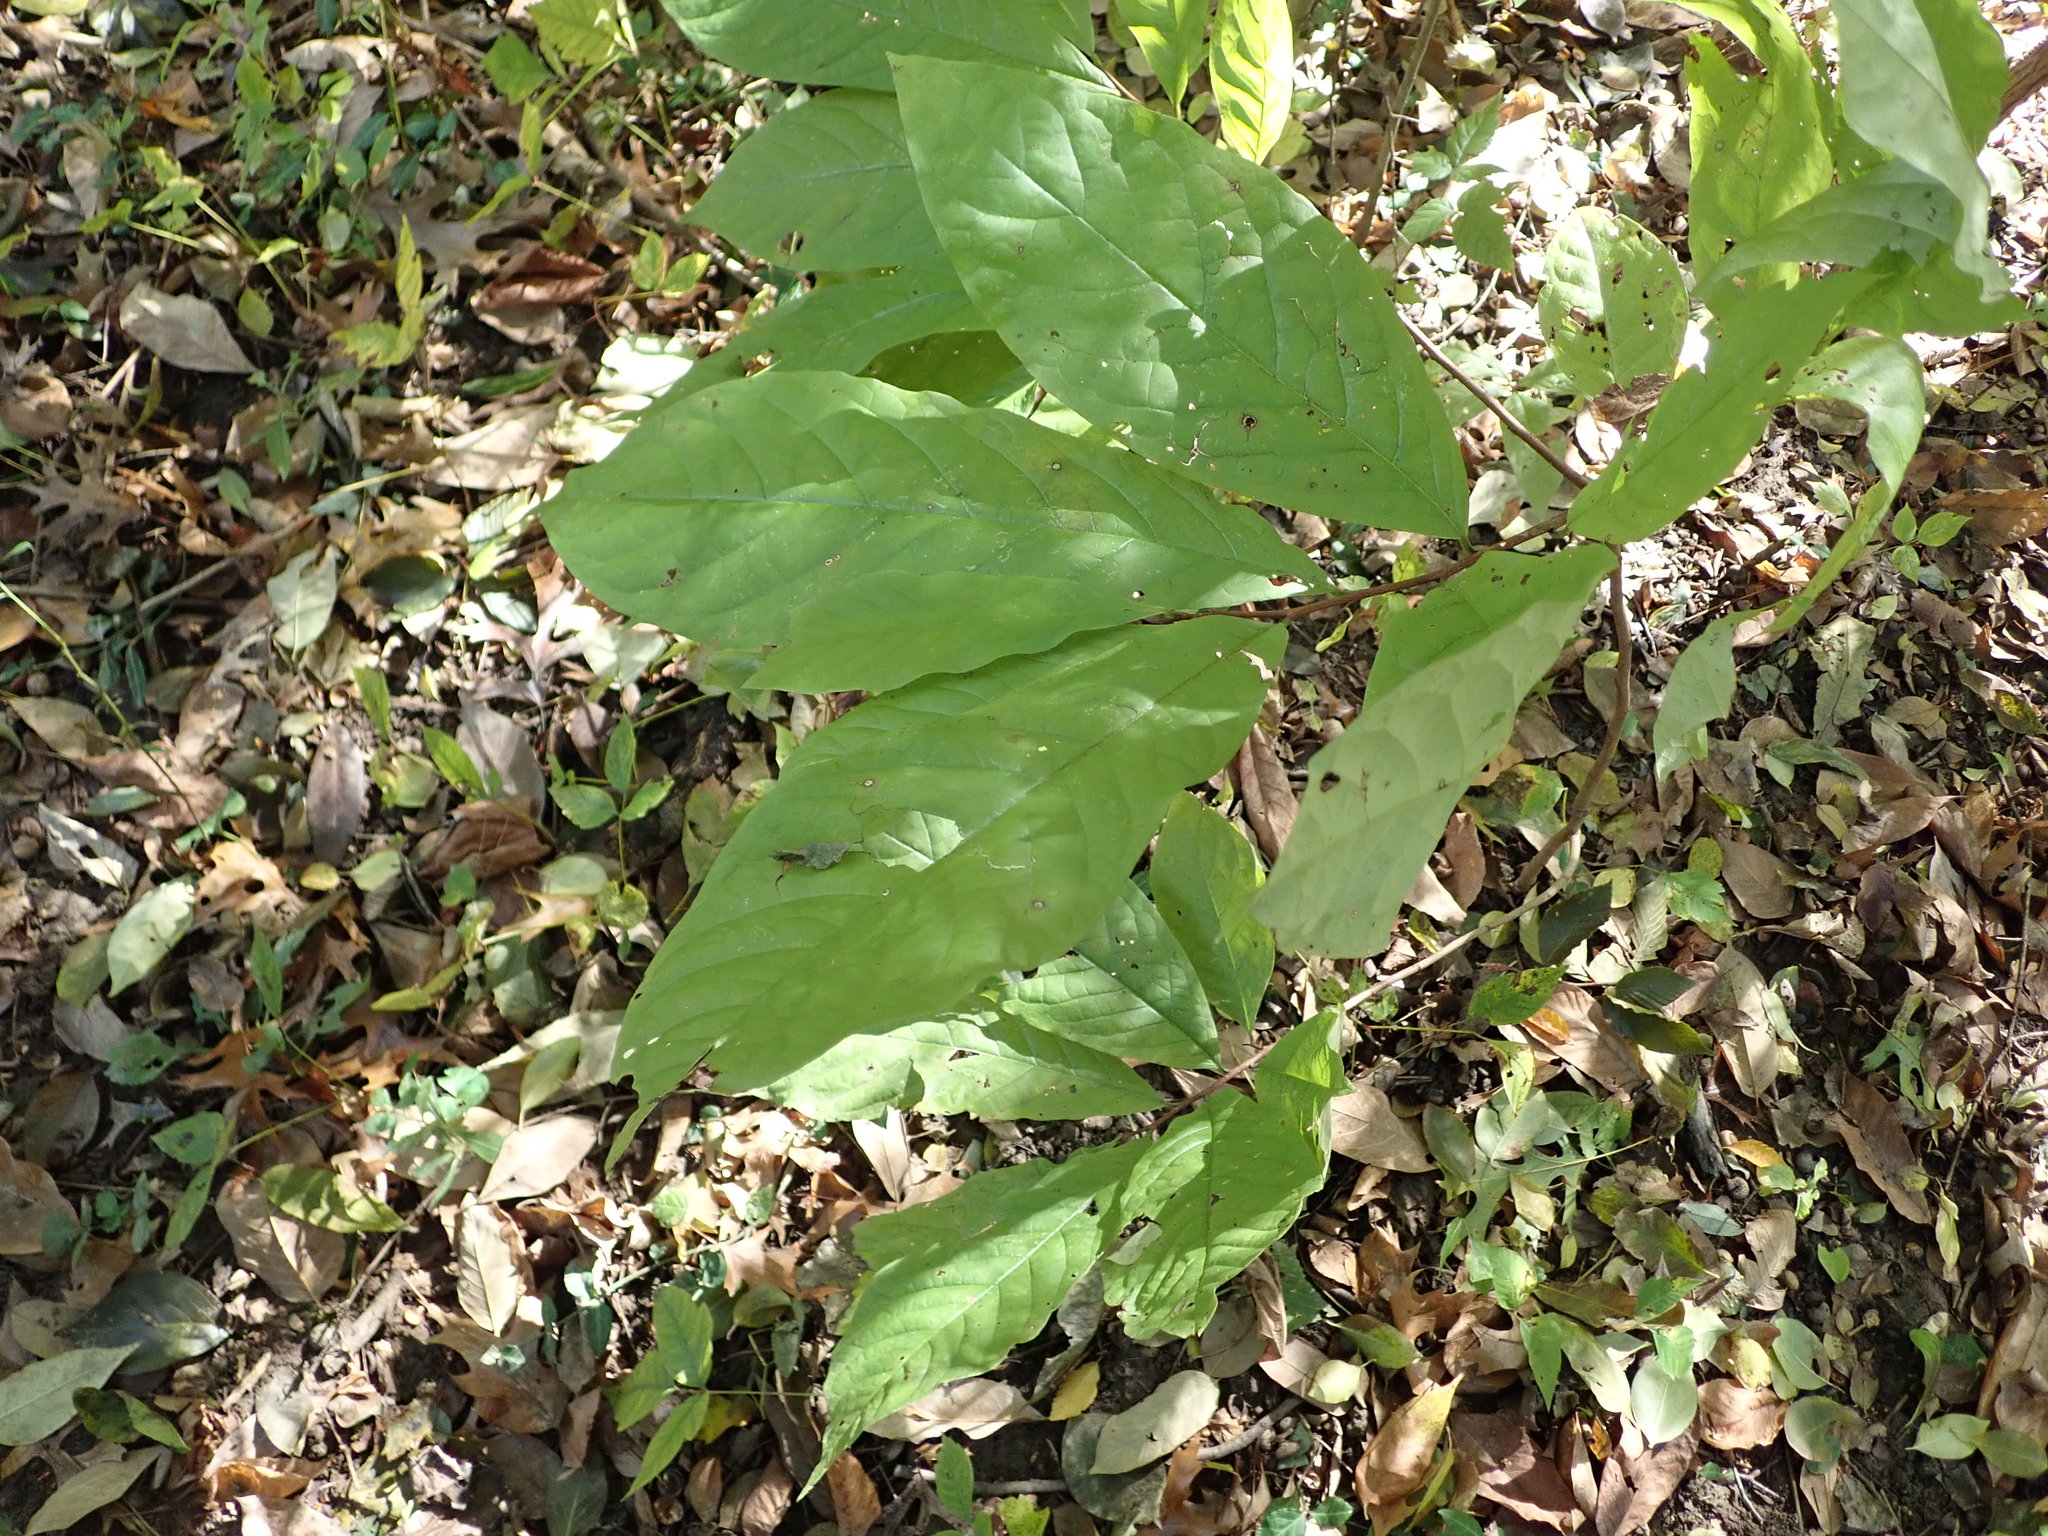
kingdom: Plantae
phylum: Tracheophyta
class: Magnoliopsida
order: Magnoliales
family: Annonaceae
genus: Asimina
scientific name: Asimina triloba
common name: Dog-banana
